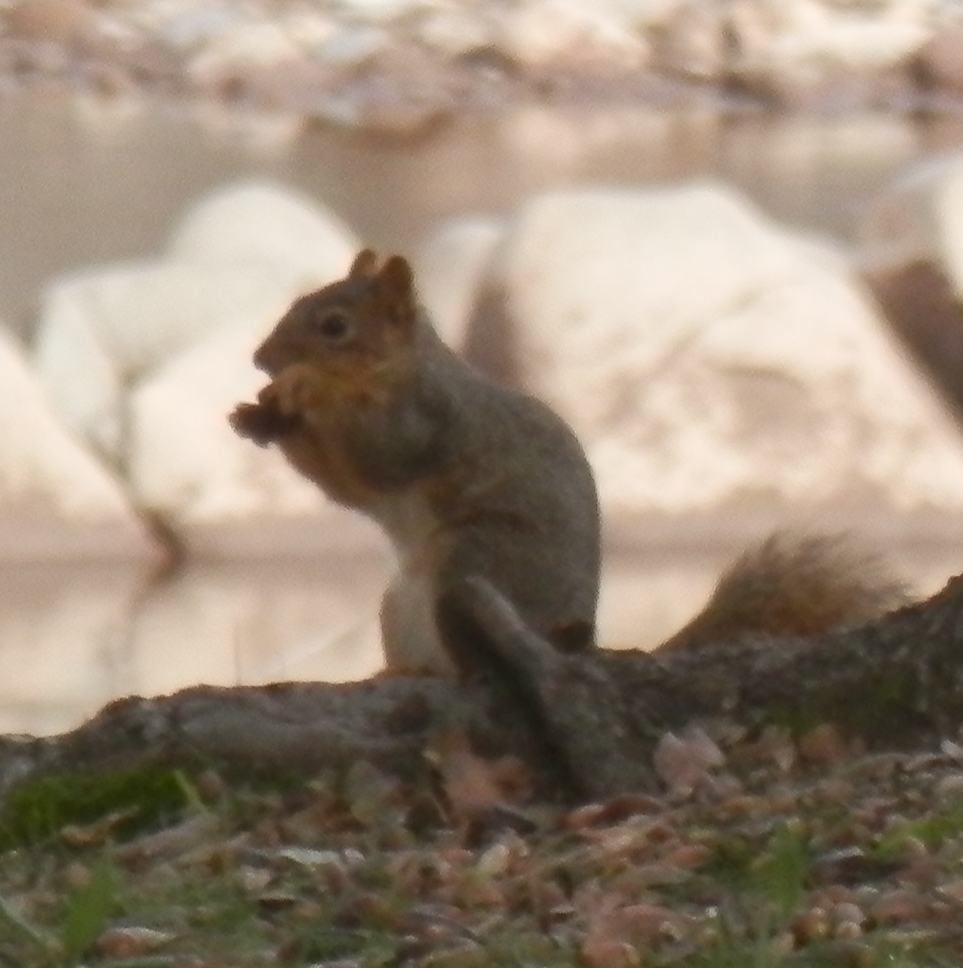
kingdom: Animalia
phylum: Chordata
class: Mammalia
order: Rodentia
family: Sciuridae
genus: Sciurus
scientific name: Sciurus niger
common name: Fox squirrel
